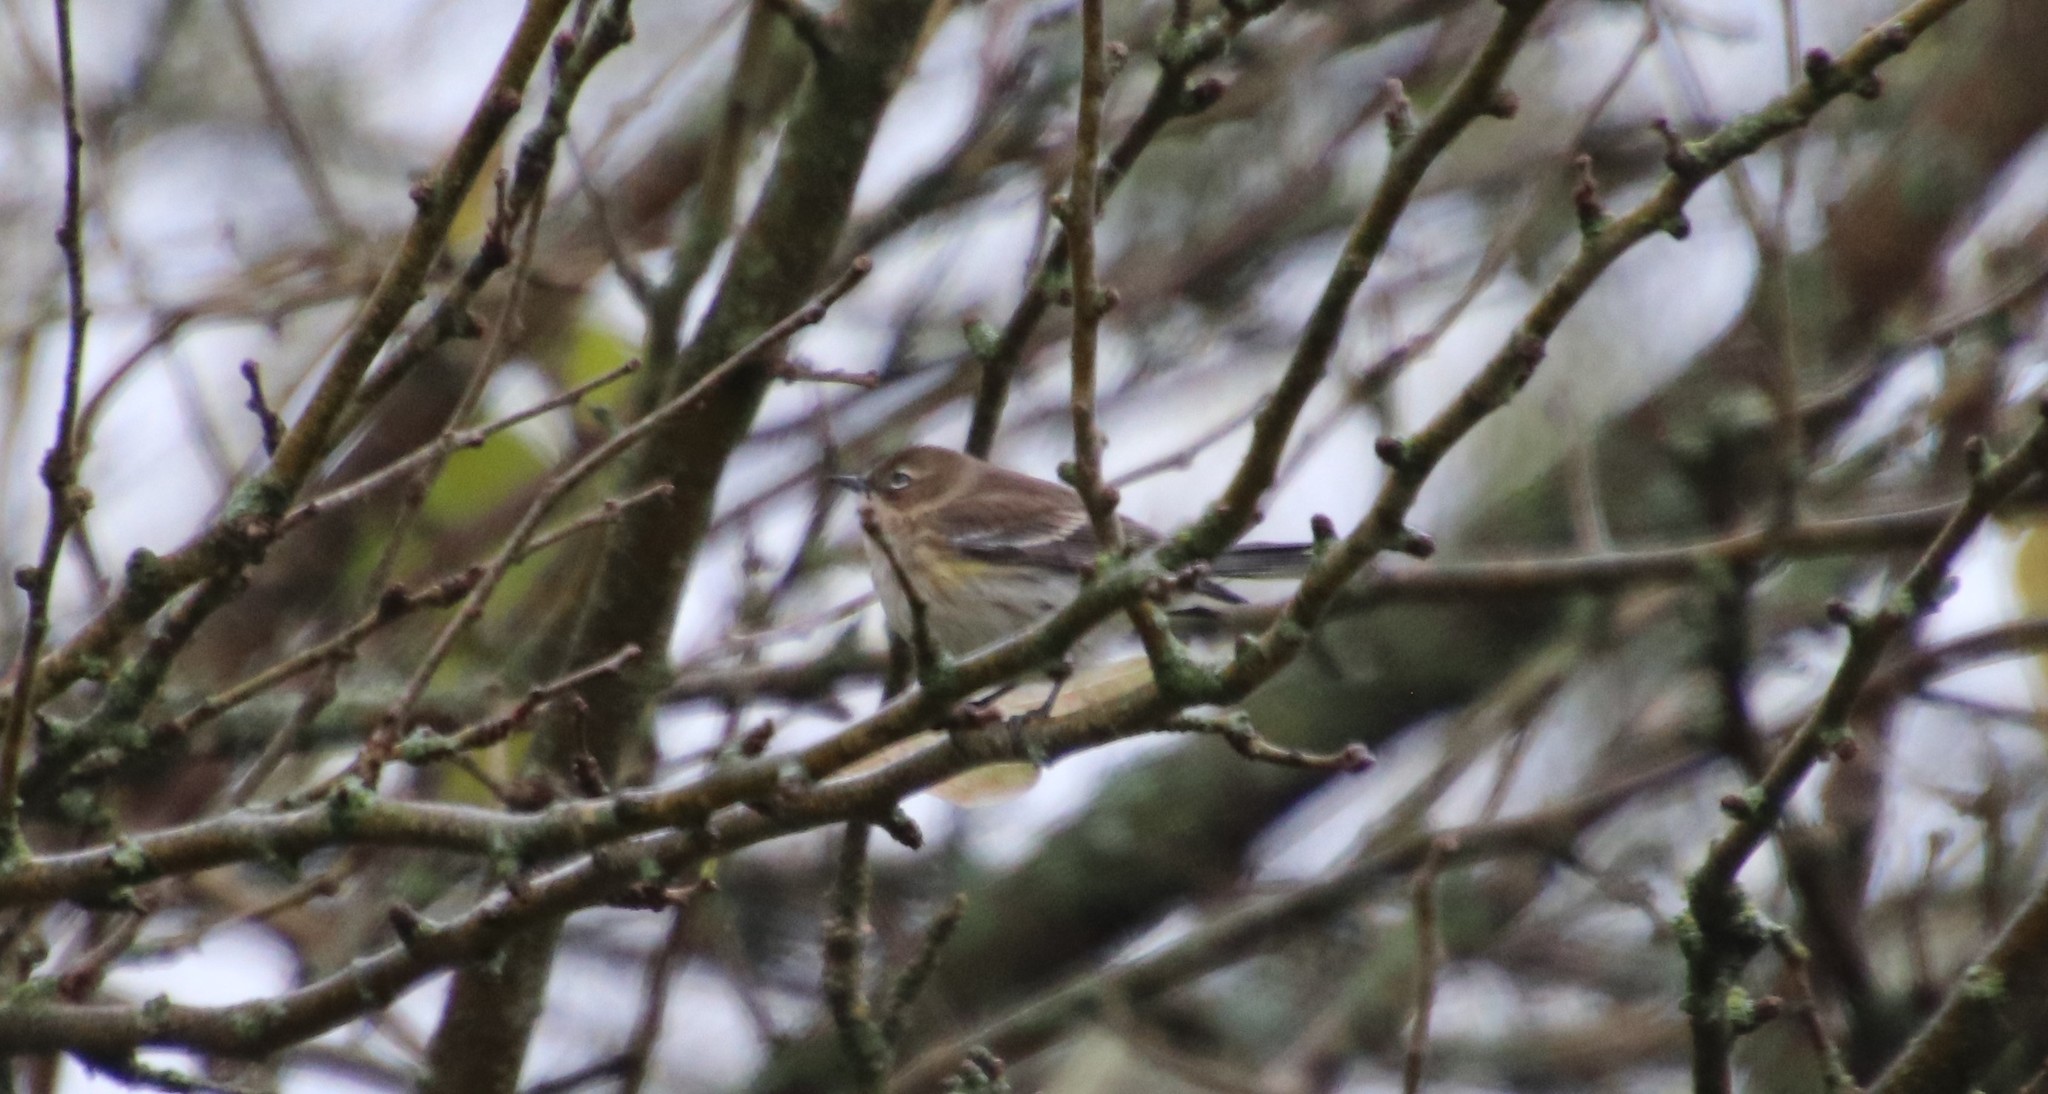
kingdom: Animalia
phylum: Chordata
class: Aves
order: Passeriformes
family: Parulidae
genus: Setophaga
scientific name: Setophaga coronata
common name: Myrtle warbler
